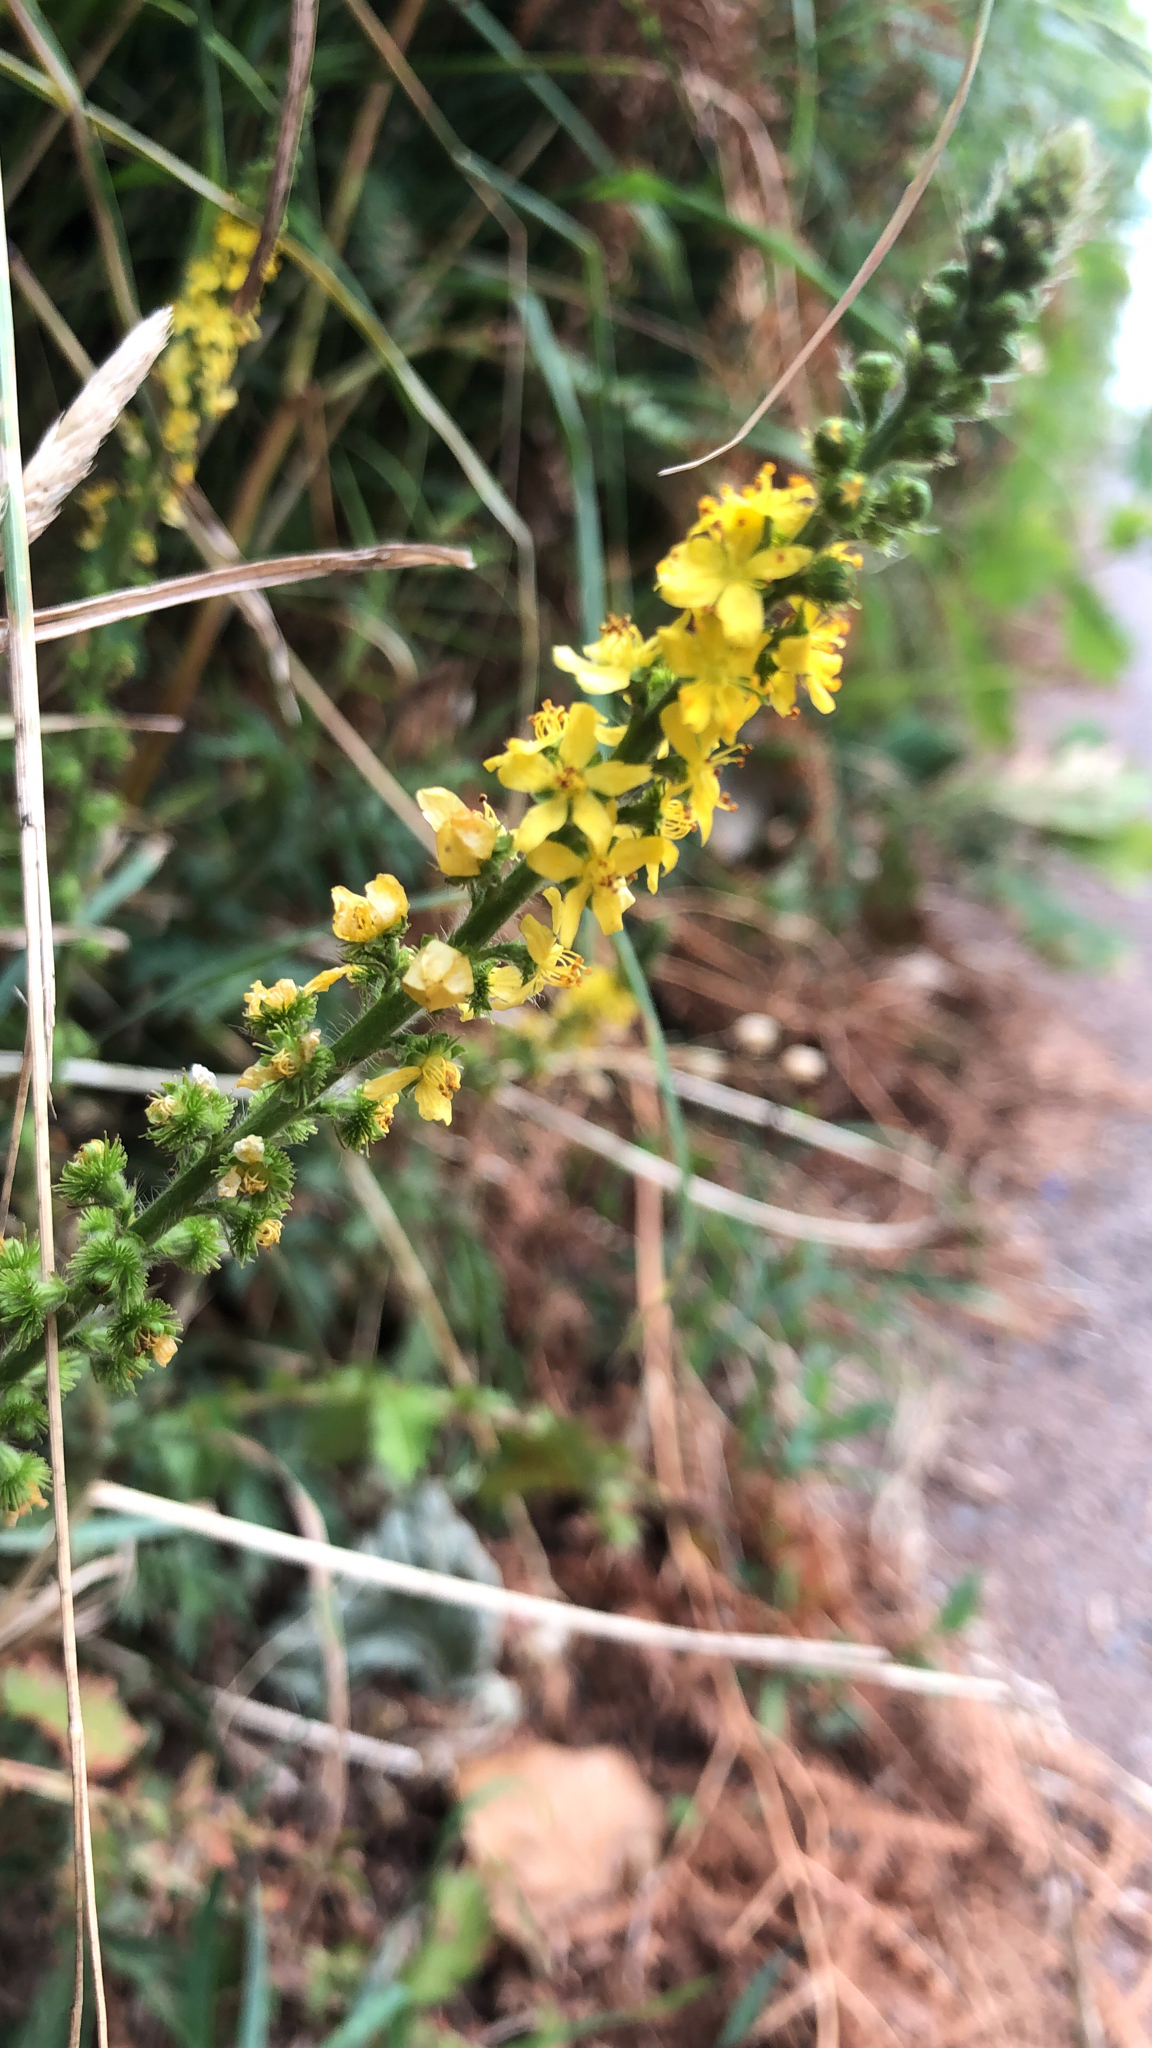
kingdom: Plantae
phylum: Tracheophyta
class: Magnoliopsida
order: Rosales
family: Rosaceae
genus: Agrimonia
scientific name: Agrimonia eupatoria
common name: Agrimony
